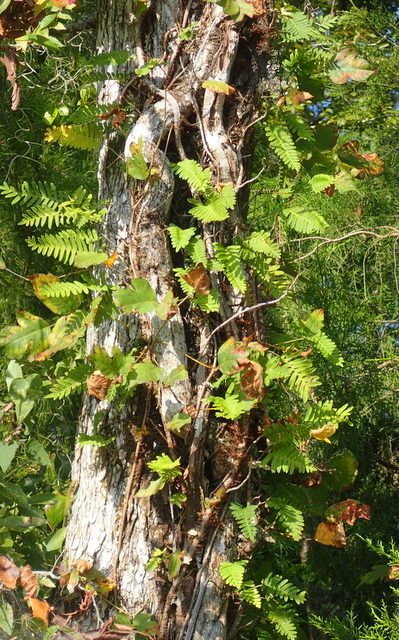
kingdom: Plantae
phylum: Tracheophyta
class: Polypodiopsida
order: Polypodiales
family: Polypodiaceae
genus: Pleopeltis
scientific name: Pleopeltis michauxiana
